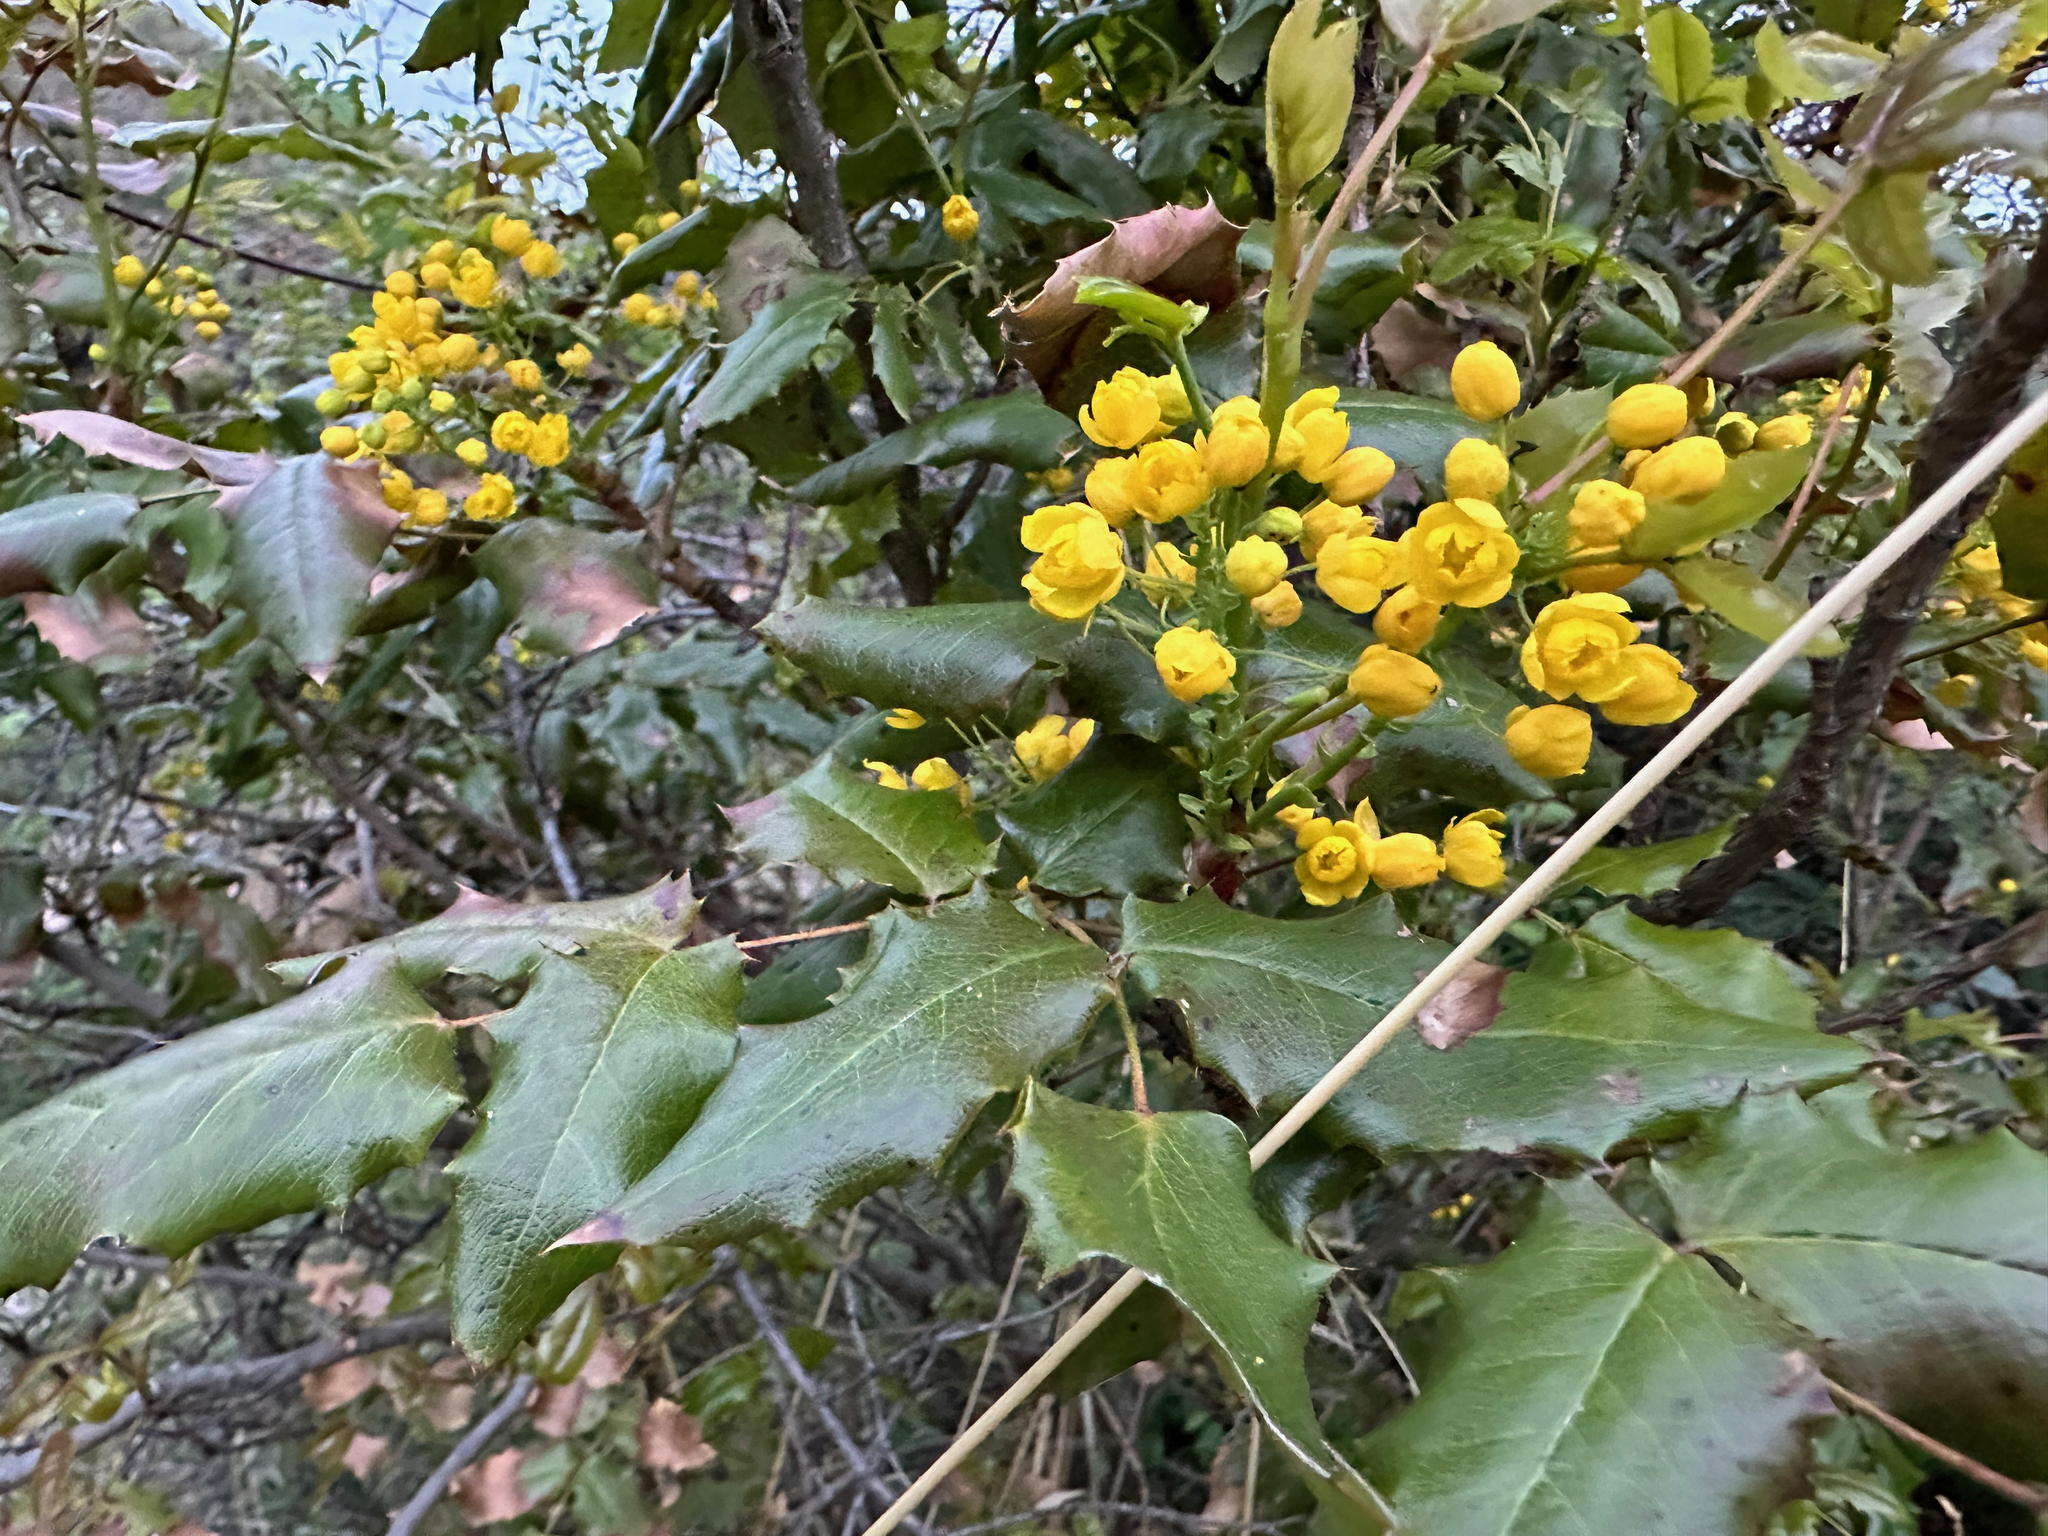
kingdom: Plantae
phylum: Tracheophyta
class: Magnoliopsida
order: Ranunculales
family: Berberidaceae
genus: Mahonia
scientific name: Mahonia aquifolium
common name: Oregon-grape
